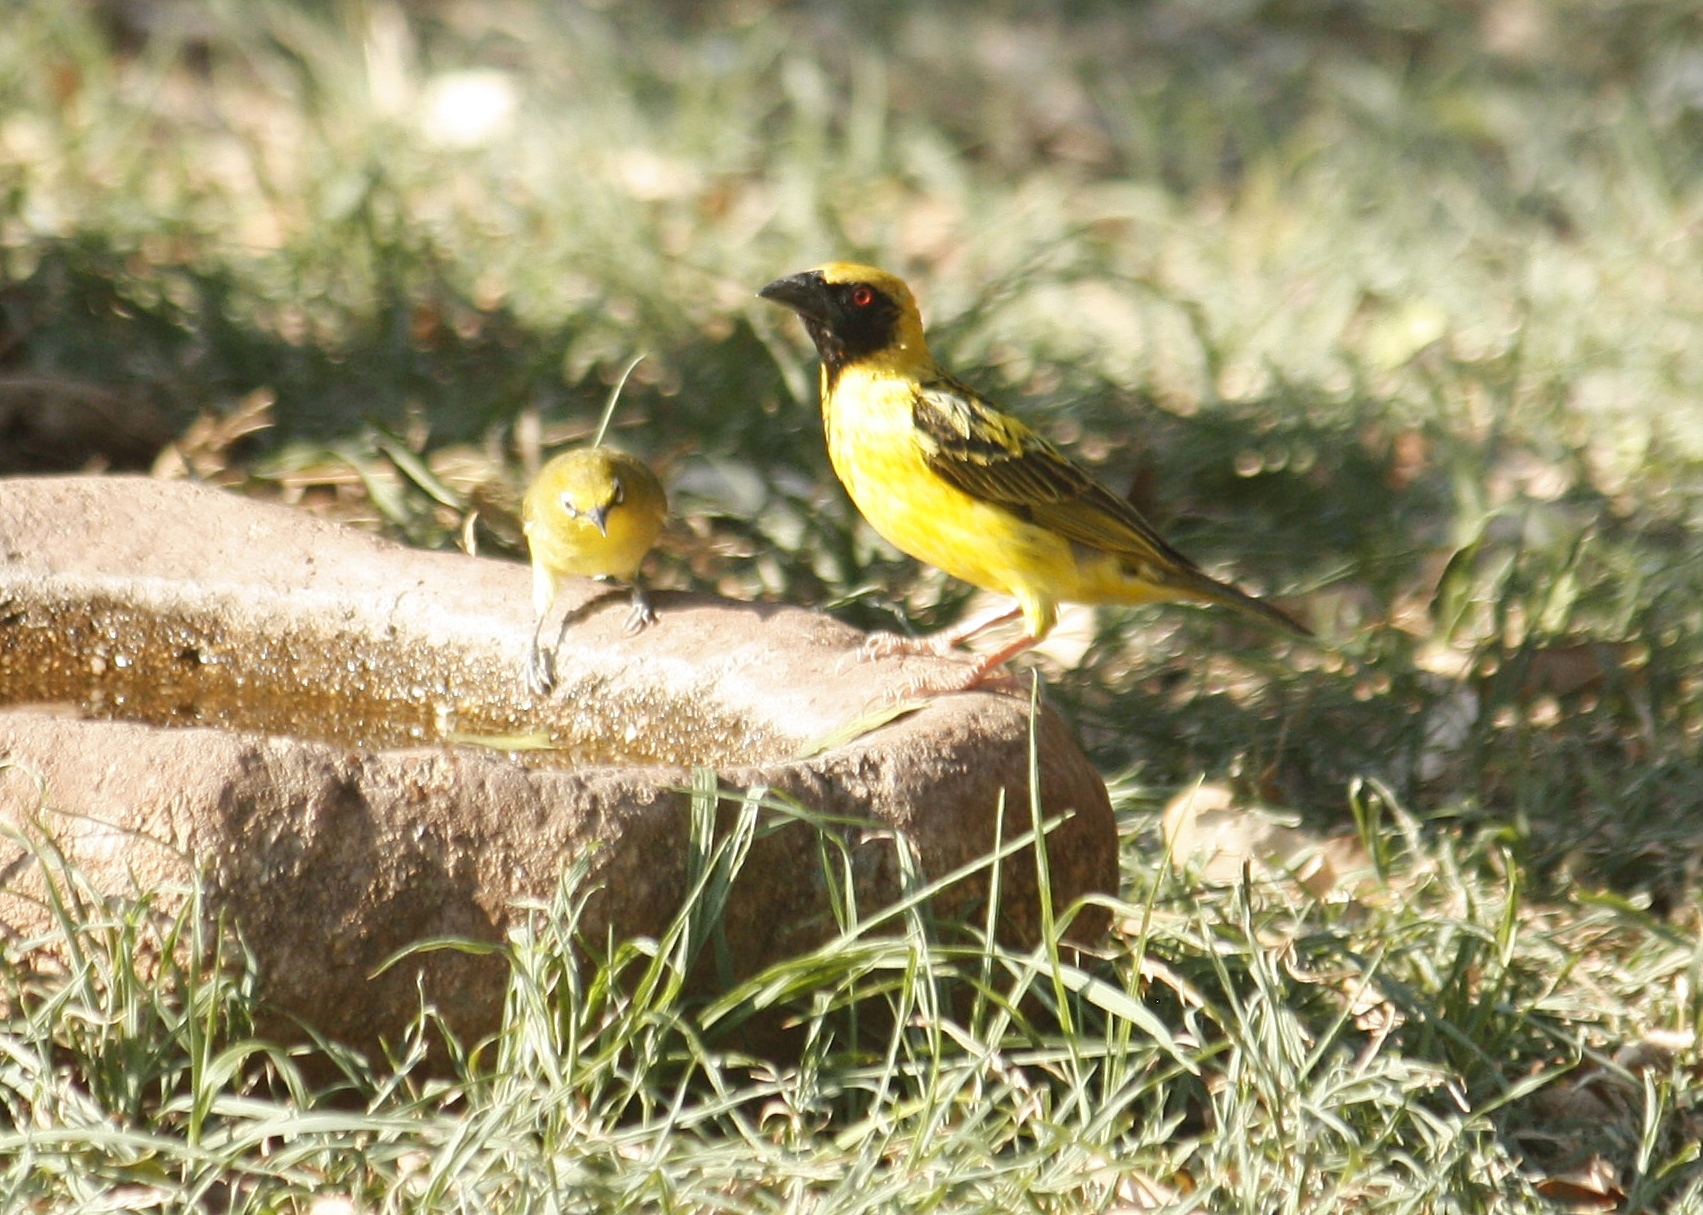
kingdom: Animalia
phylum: Chordata
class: Aves
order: Passeriformes
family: Ploceidae
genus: Ploceus
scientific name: Ploceus cucullatus
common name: Village weaver
